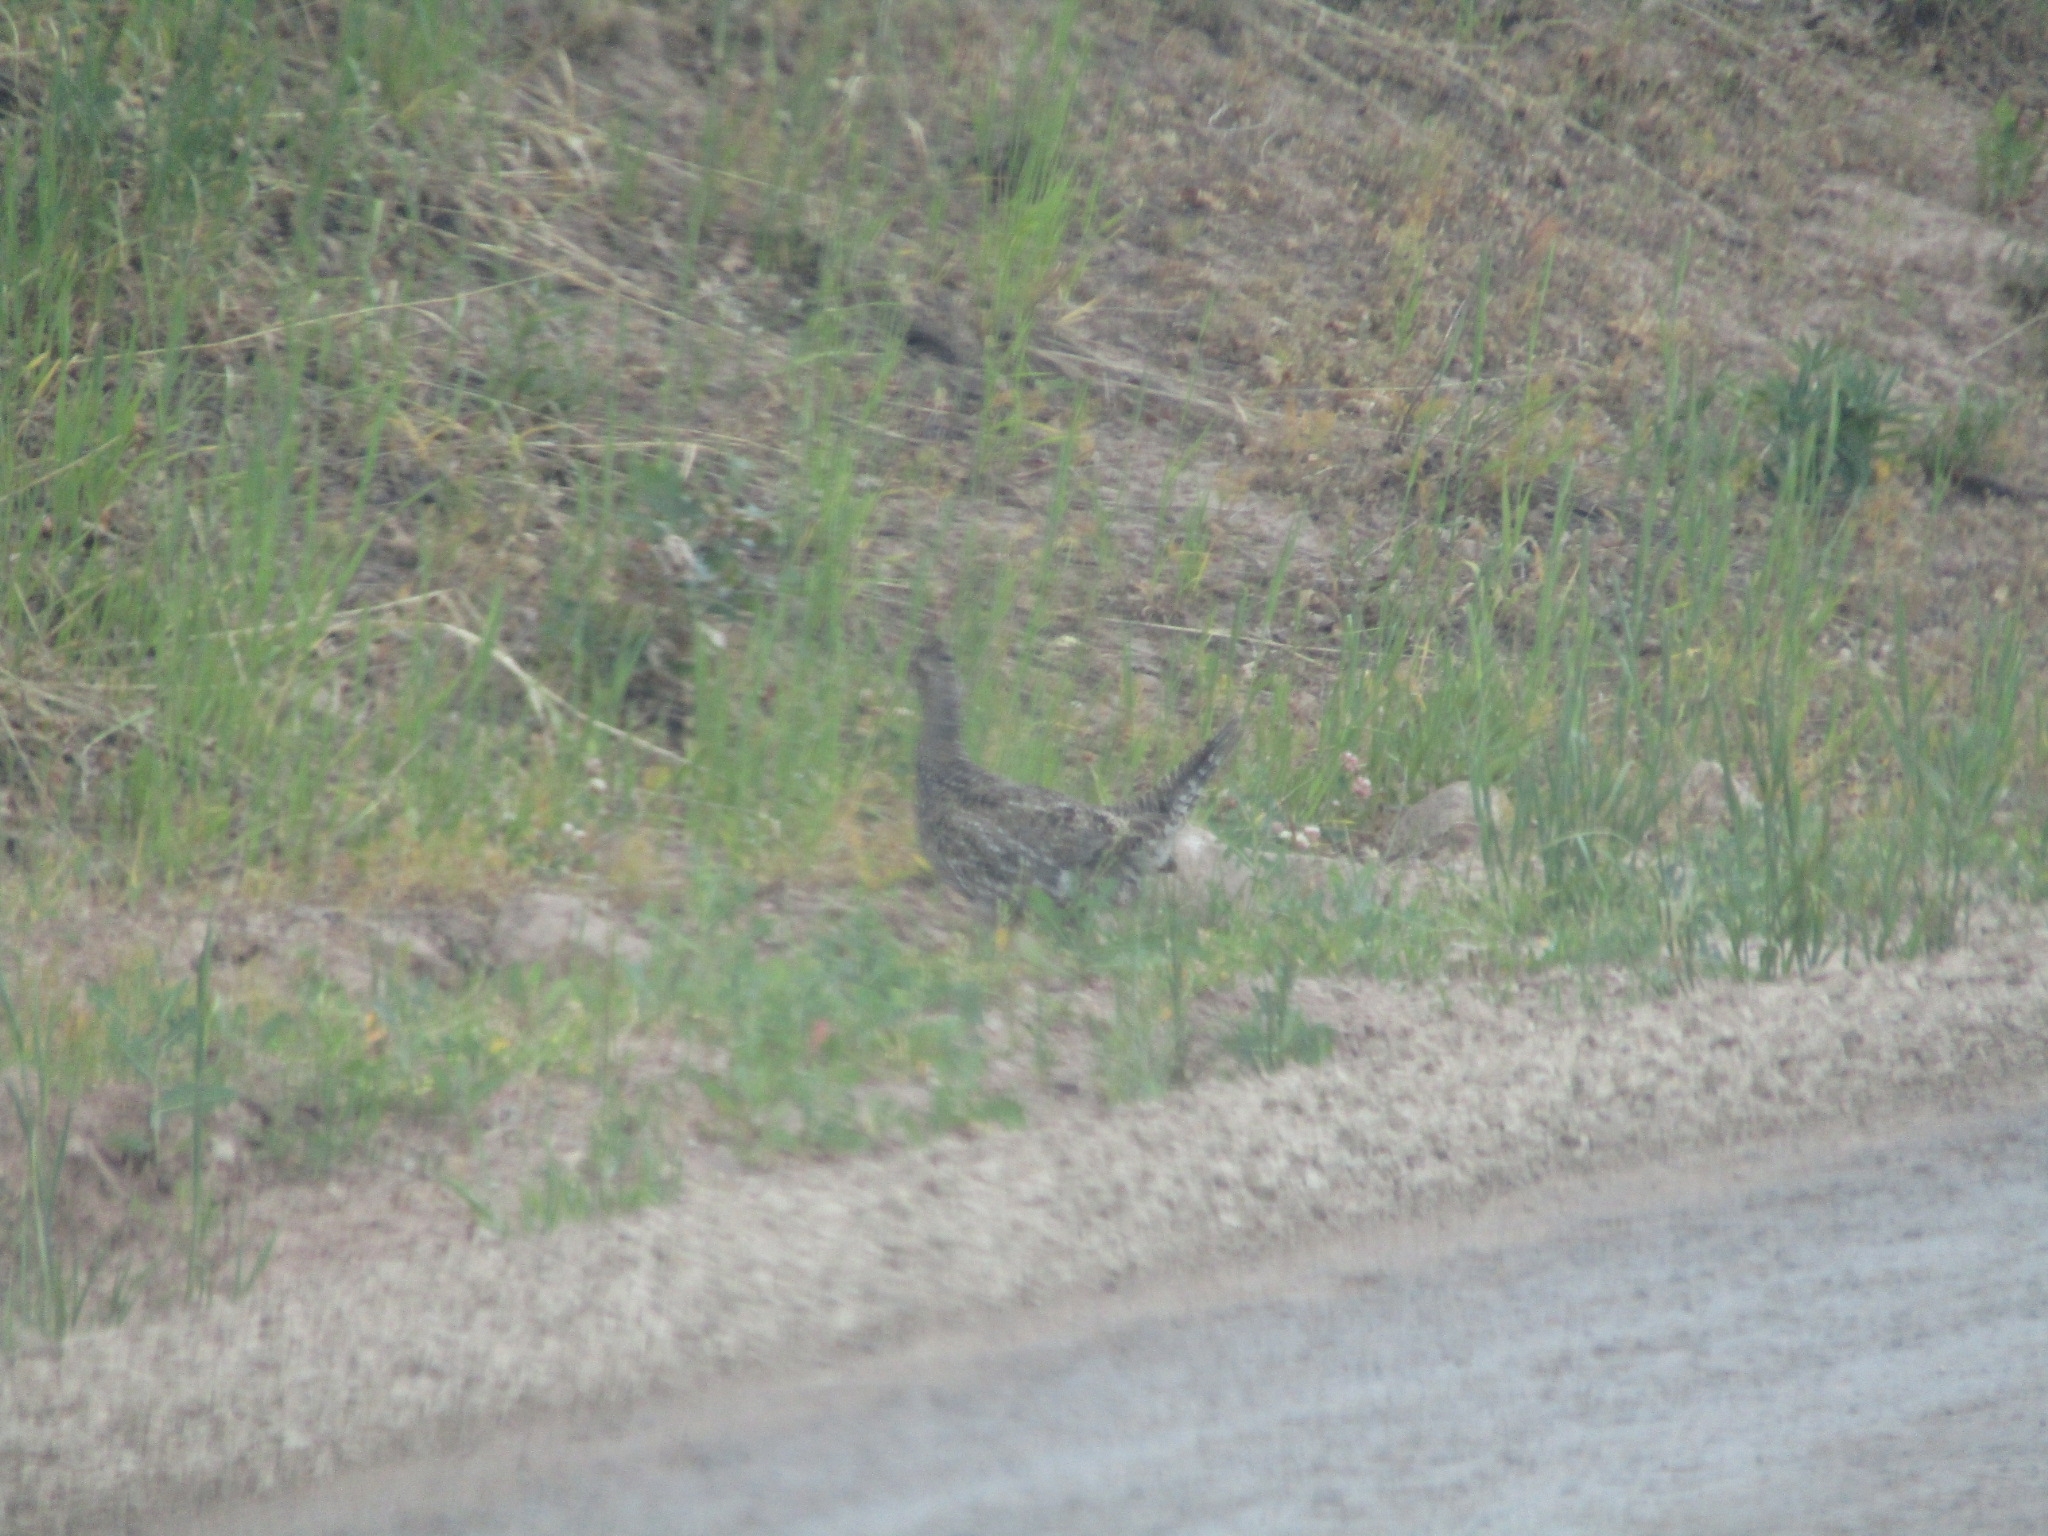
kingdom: Animalia
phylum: Chordata
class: Aves
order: Galliformes
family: Phasianidae
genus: Dendragapus
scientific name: Dendragapus obscurus
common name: Dusky grouse
